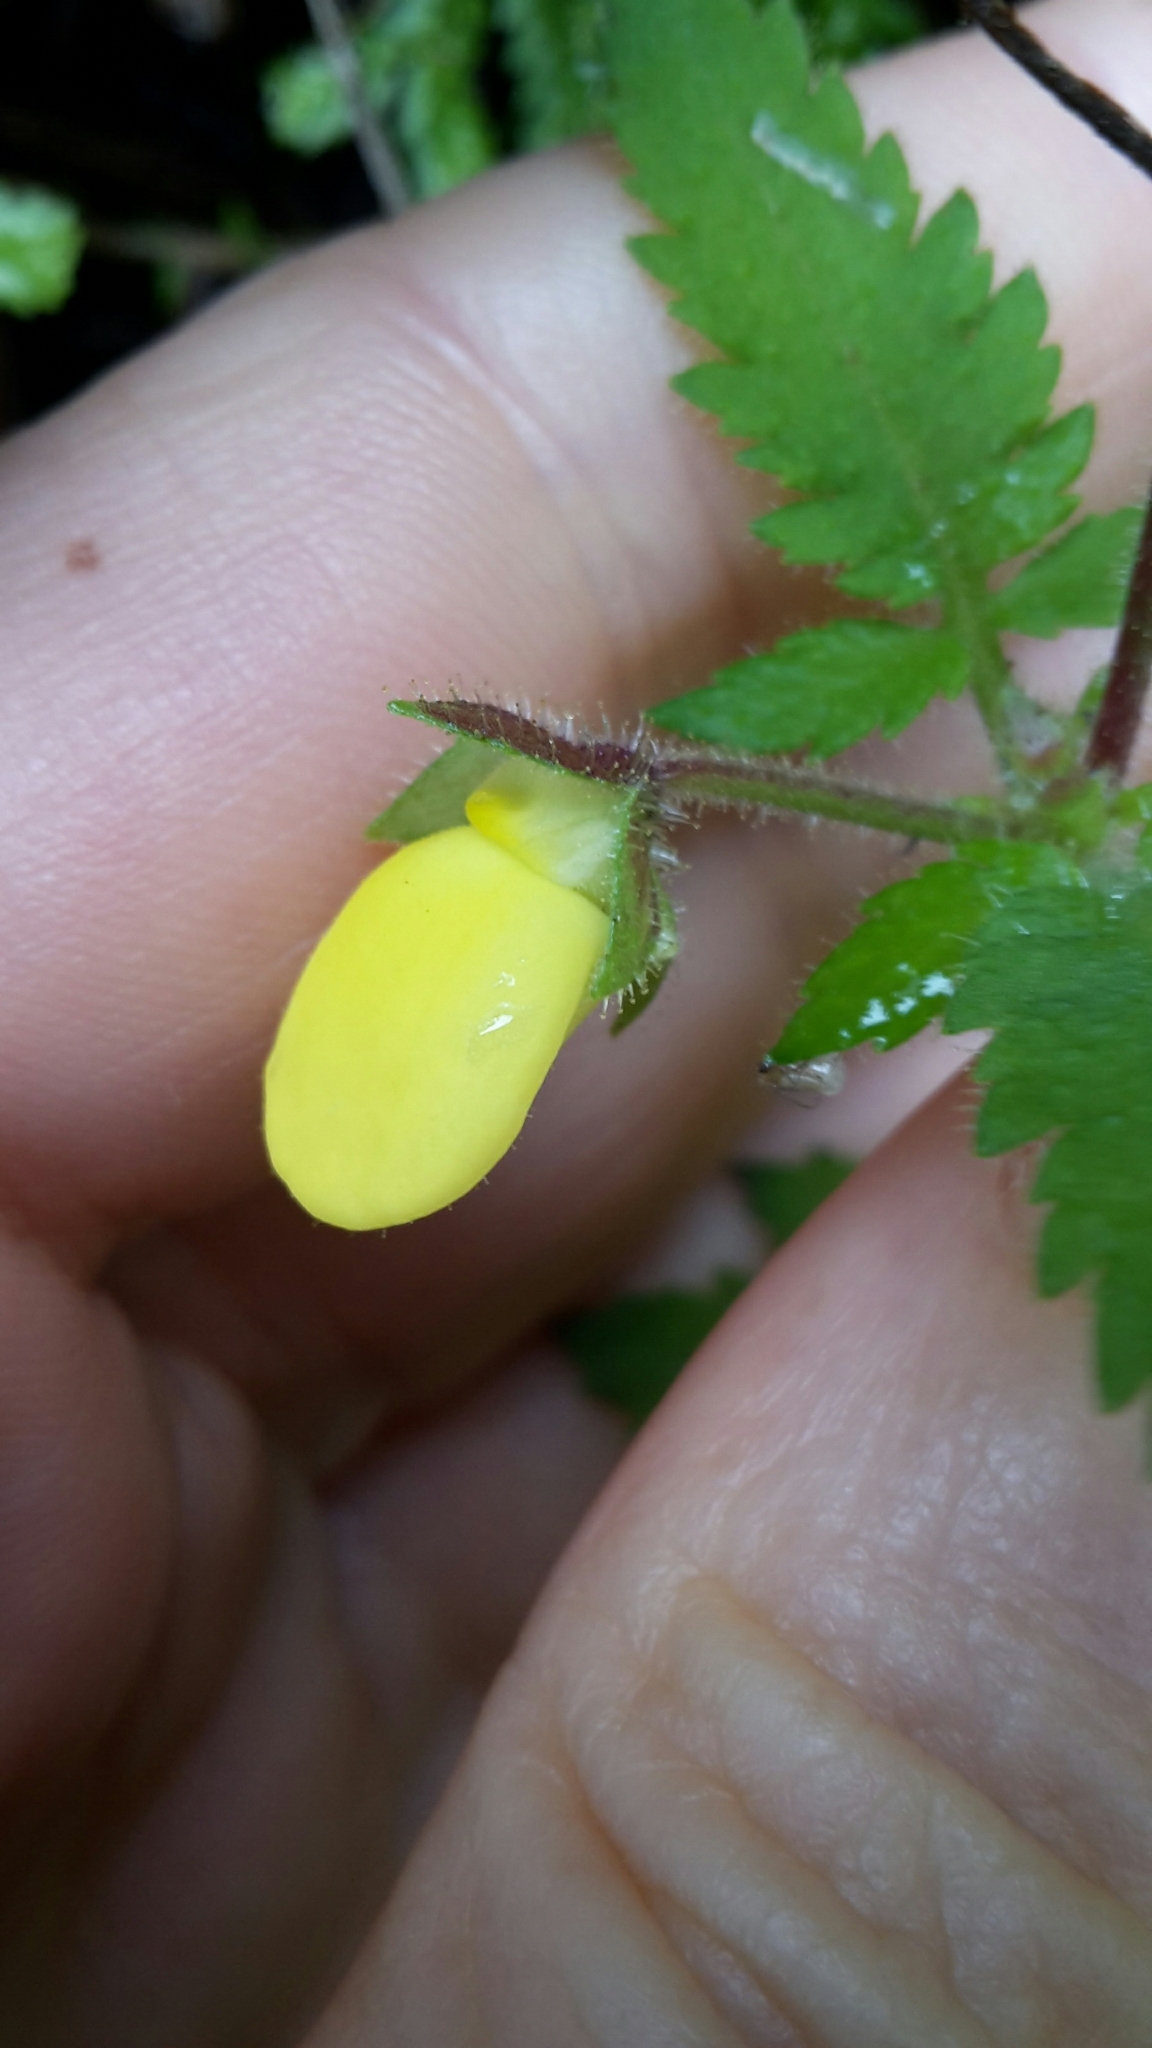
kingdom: Plantae
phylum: Tracheophyta
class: Magnoliopsida
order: Lamiales
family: Calceolariaceae
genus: Calceolaria
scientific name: Calceolaria tripartita
